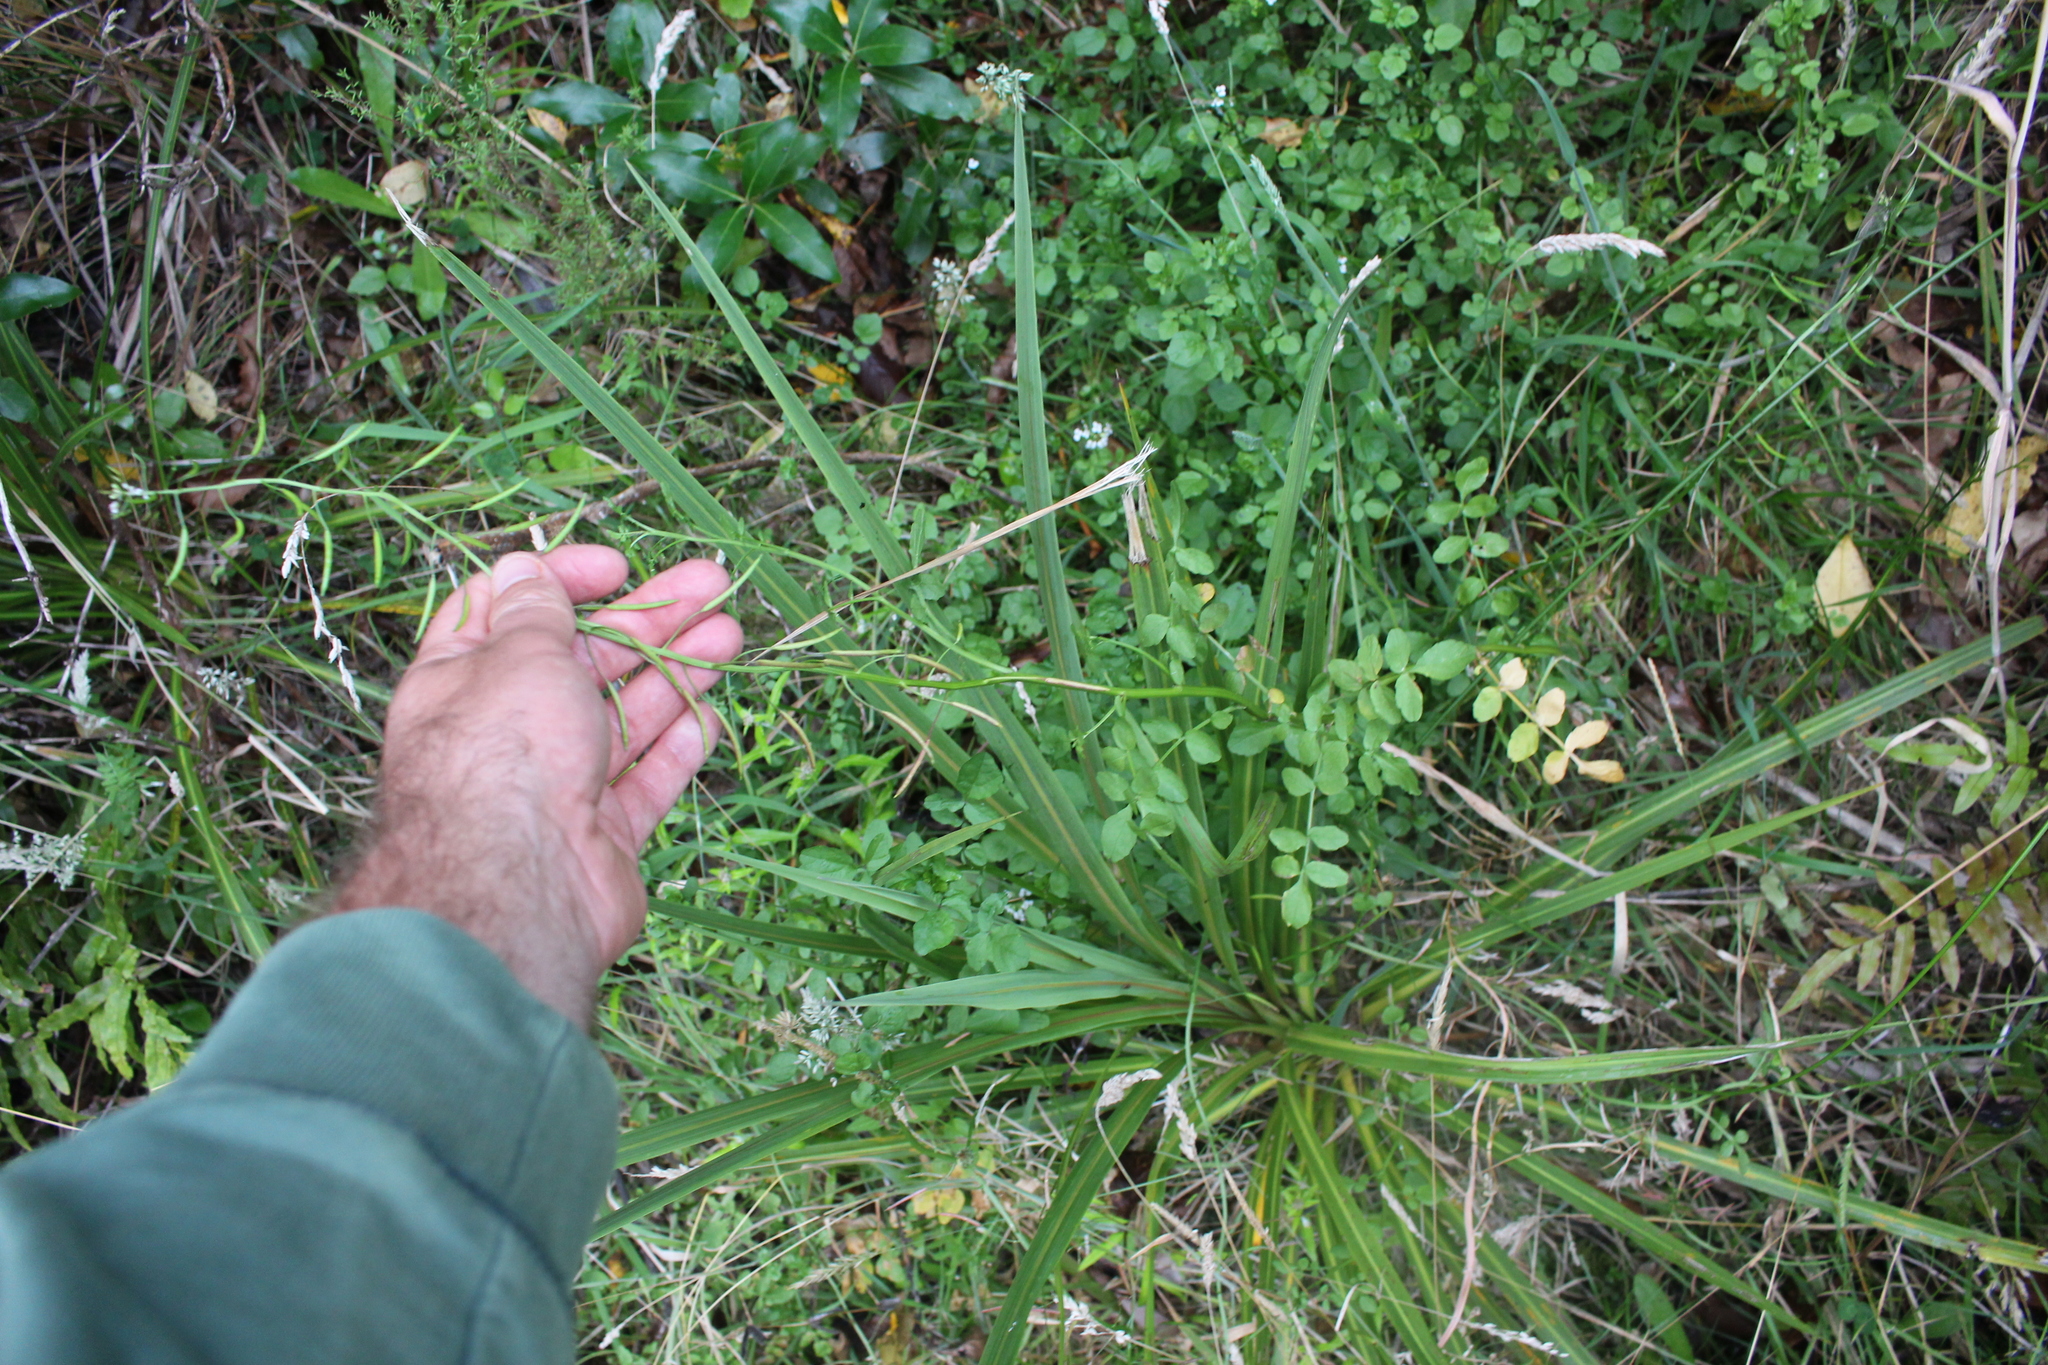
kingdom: Plantae
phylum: Tracheophyta
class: Magnoliopsida
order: Brassicales
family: Brassicaceae
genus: Nasturtium
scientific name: Nasturtium officinale
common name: Watercress
